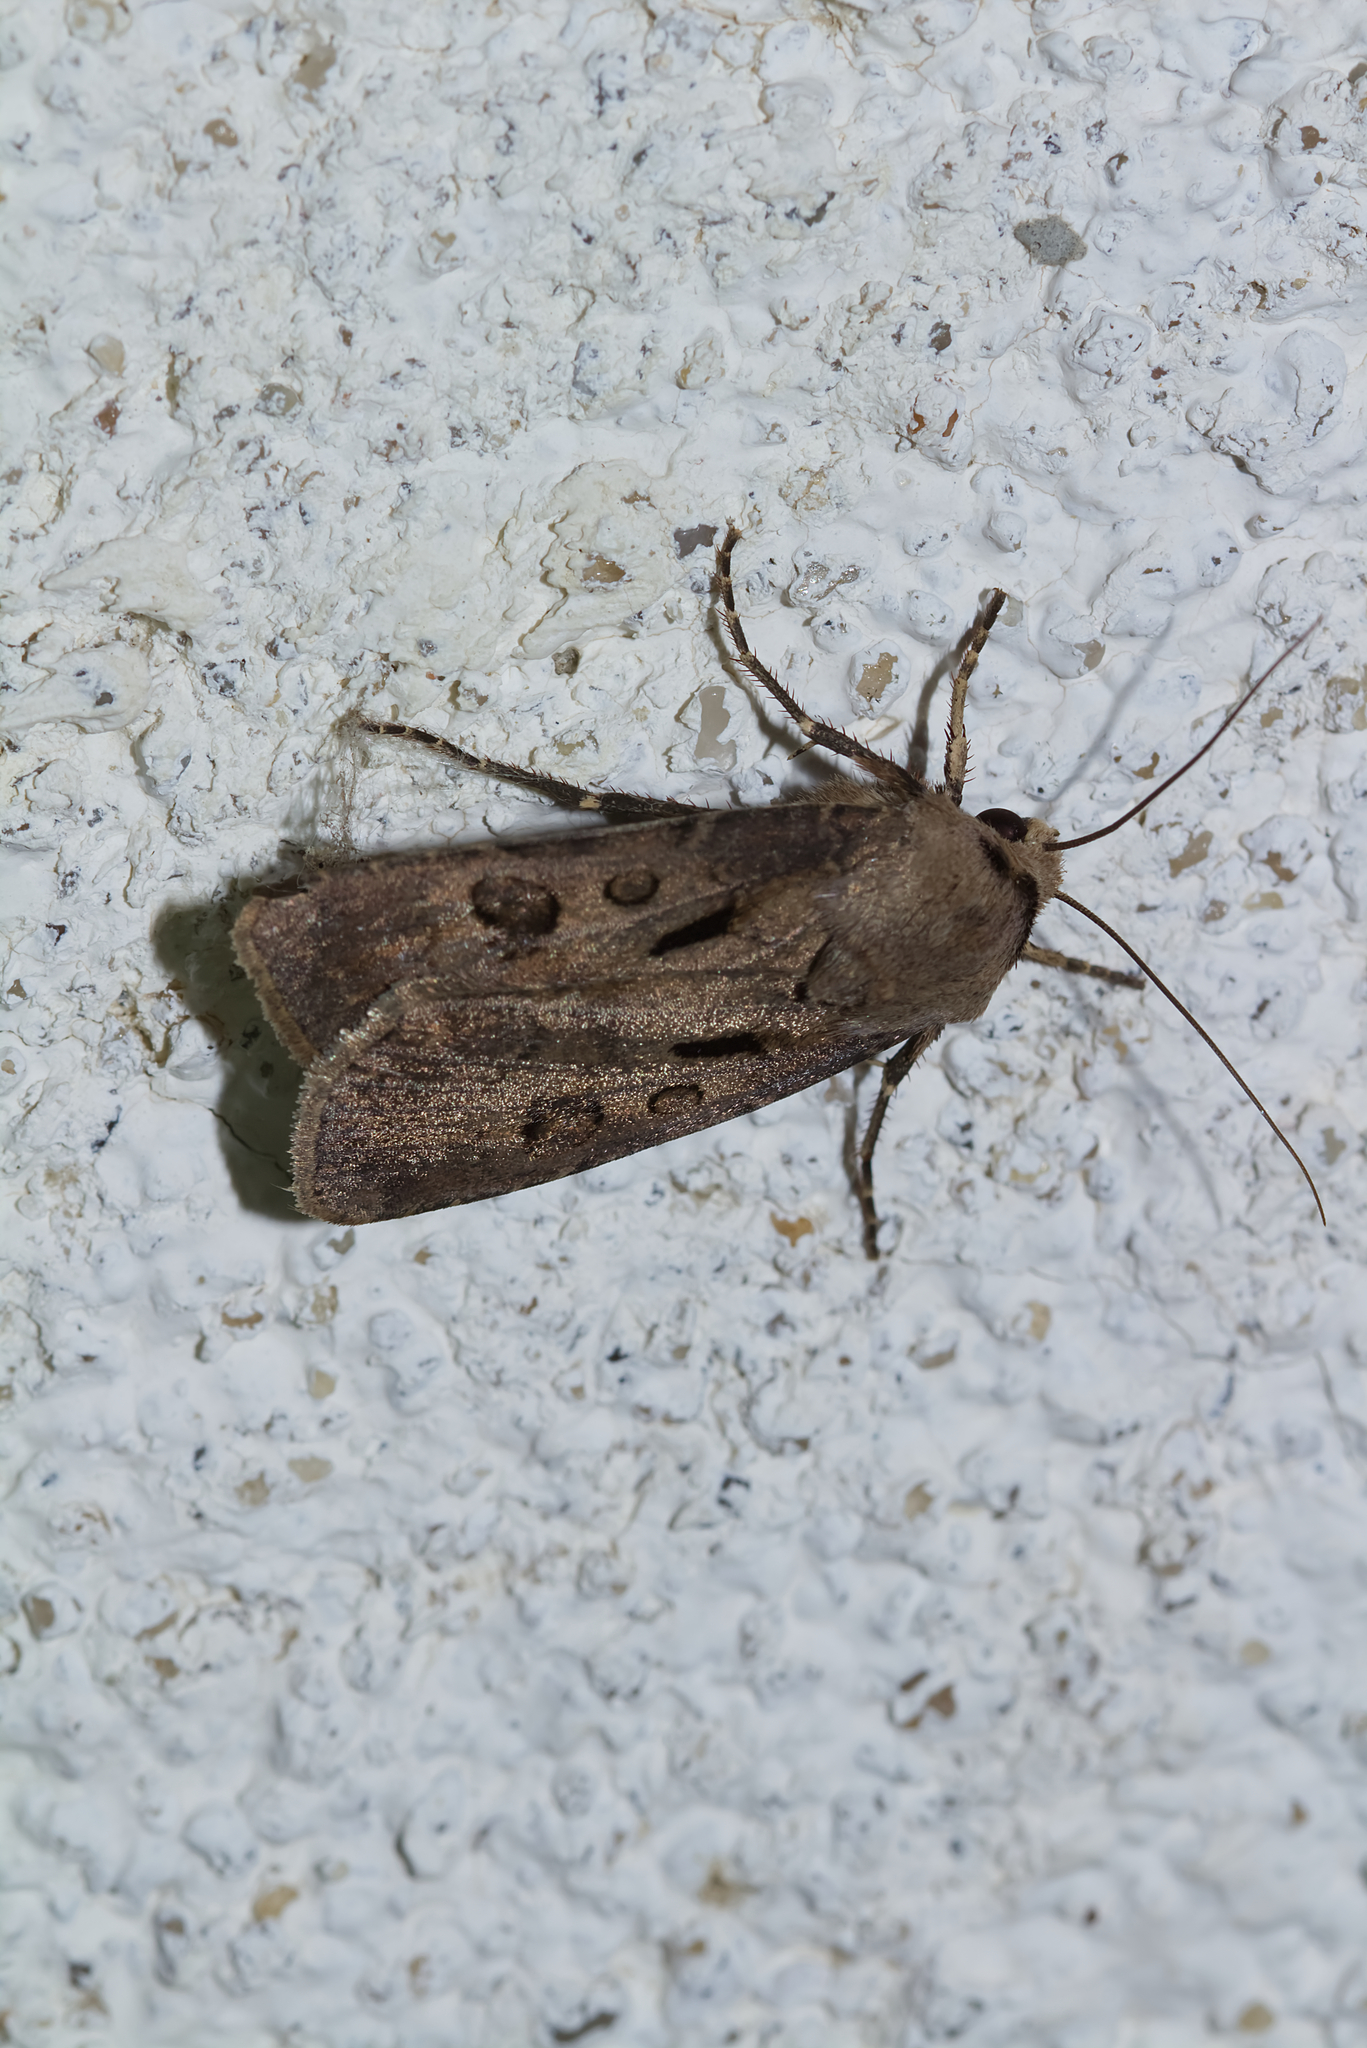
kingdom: Animalia
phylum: Arthropoda
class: Insecta
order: Lepidoptera
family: Noctuidae
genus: Agrotis
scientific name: Agrotis exclamationis
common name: Heart and dart
